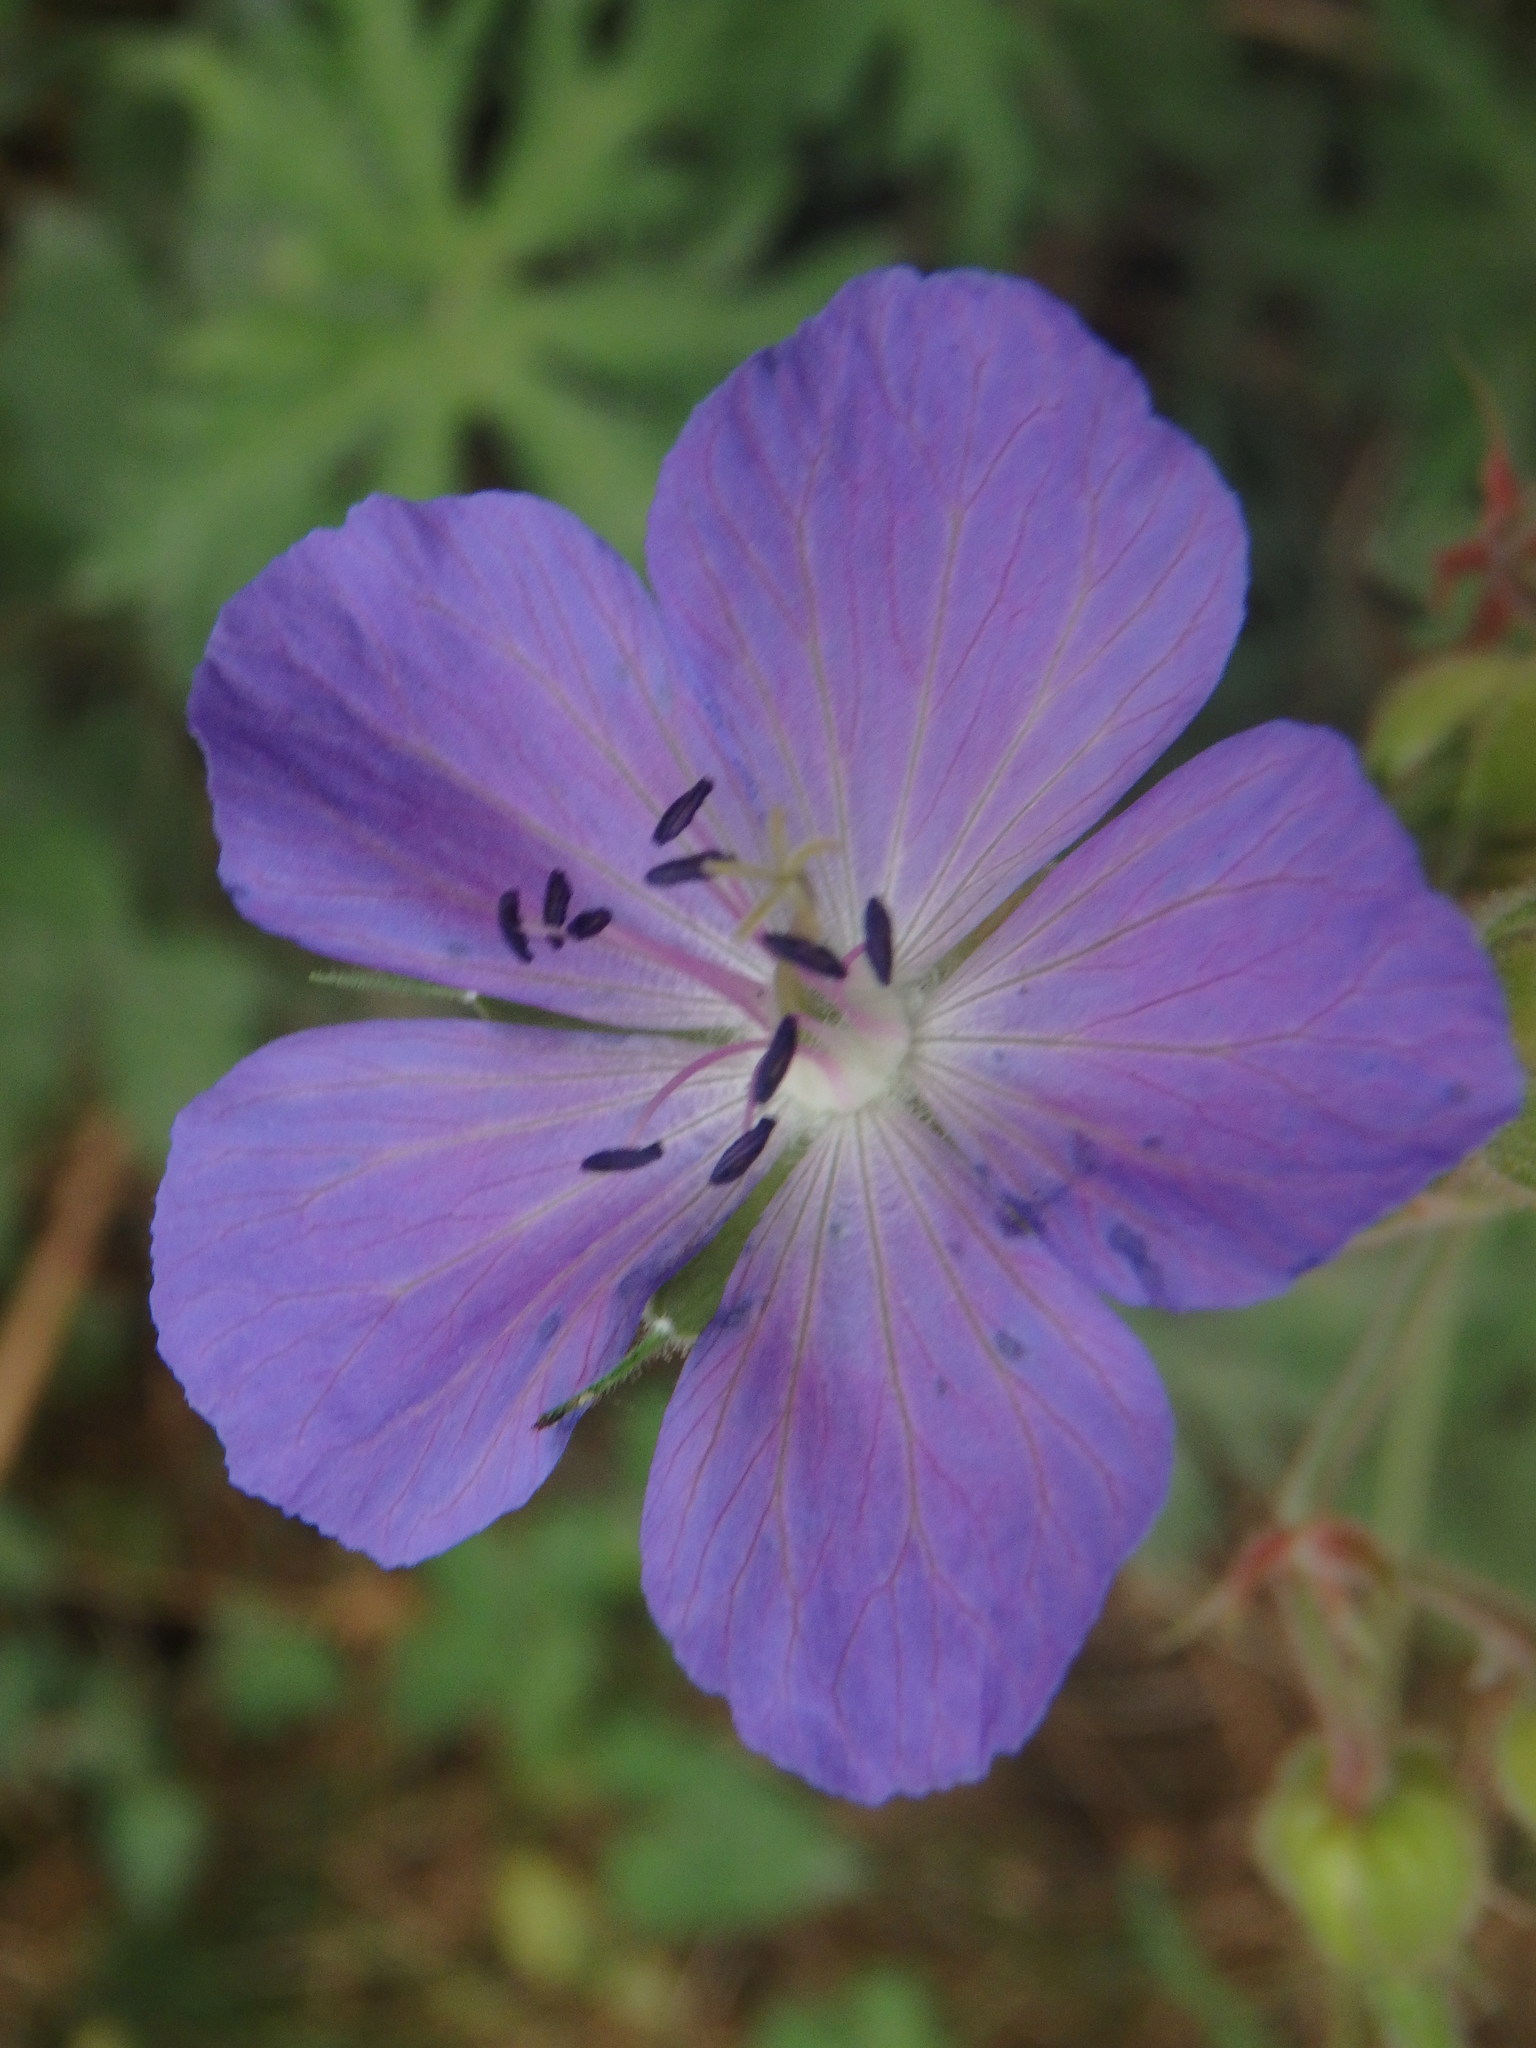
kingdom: Plantae
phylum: Tracheophyta
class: Magnoliopsida
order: Geraniales
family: Geraniaceae
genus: Geranium
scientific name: Geranium pratense
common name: Meadow crane's-bill
